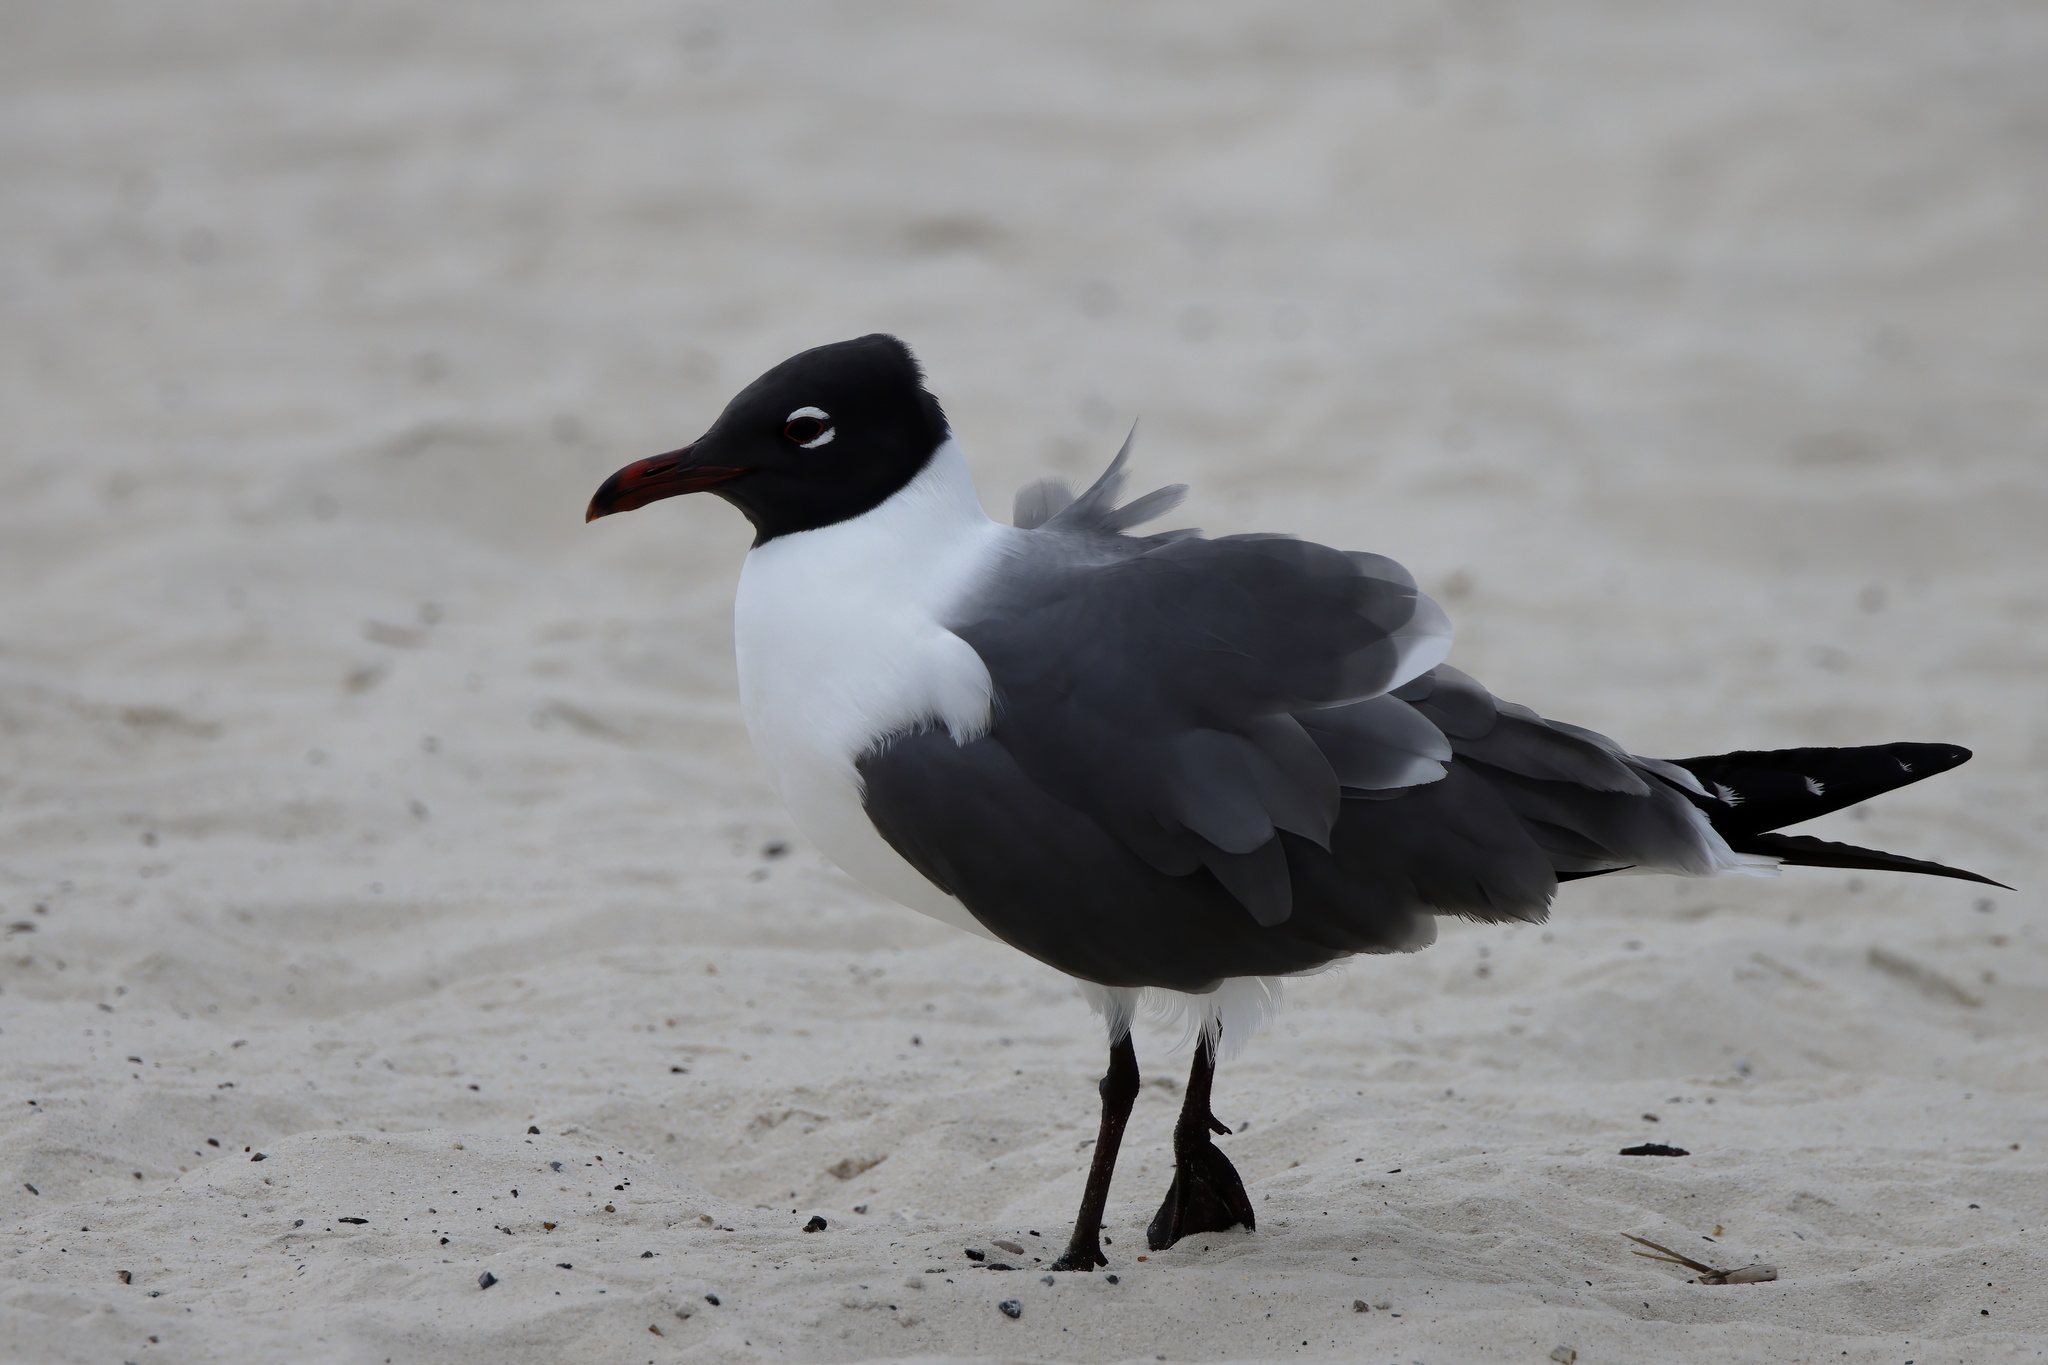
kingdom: Animalia
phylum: Chordata
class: Aves
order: Charadriiformes
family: Laridae
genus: Leucophaeus
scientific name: Leucophaeus atricilla
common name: Laughing gull
